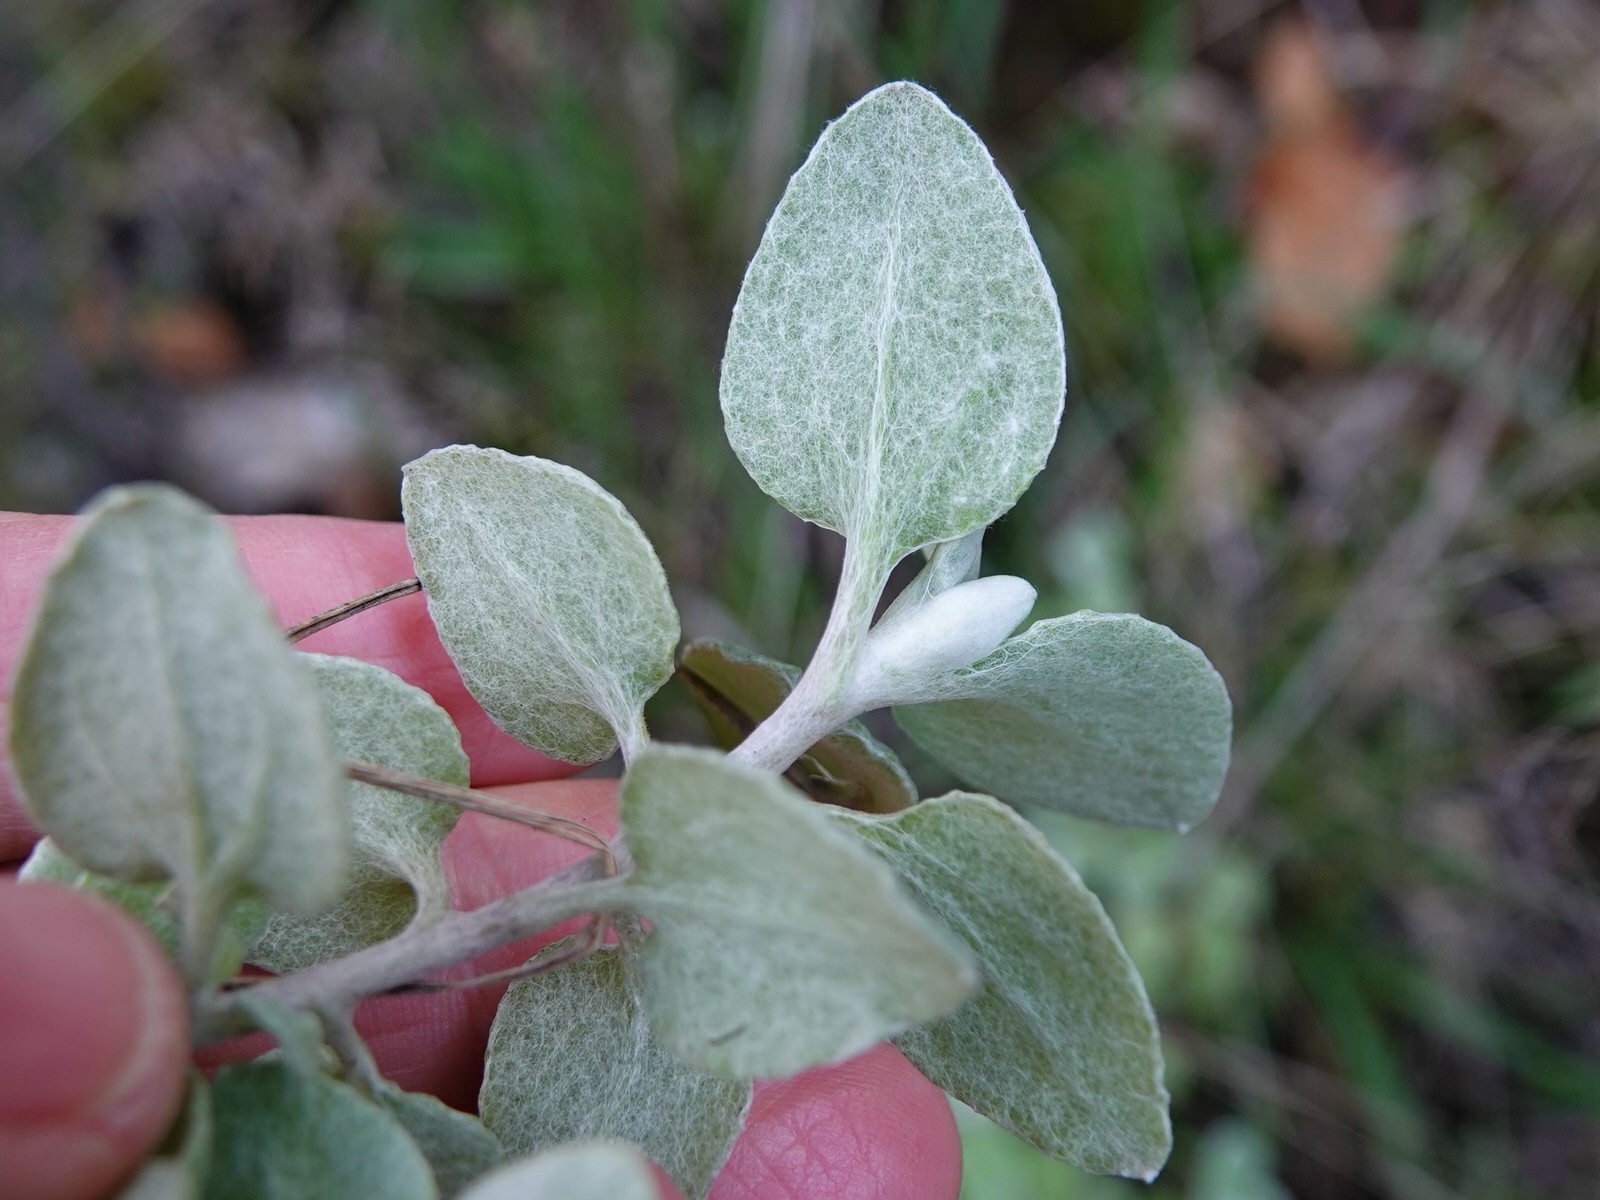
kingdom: Plantae
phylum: Tracheophyta
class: Magnoliopsida
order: Asterales
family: Asteraceae
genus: Helichrysum
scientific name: Helichrysum petiolare
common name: Licorice-plant
